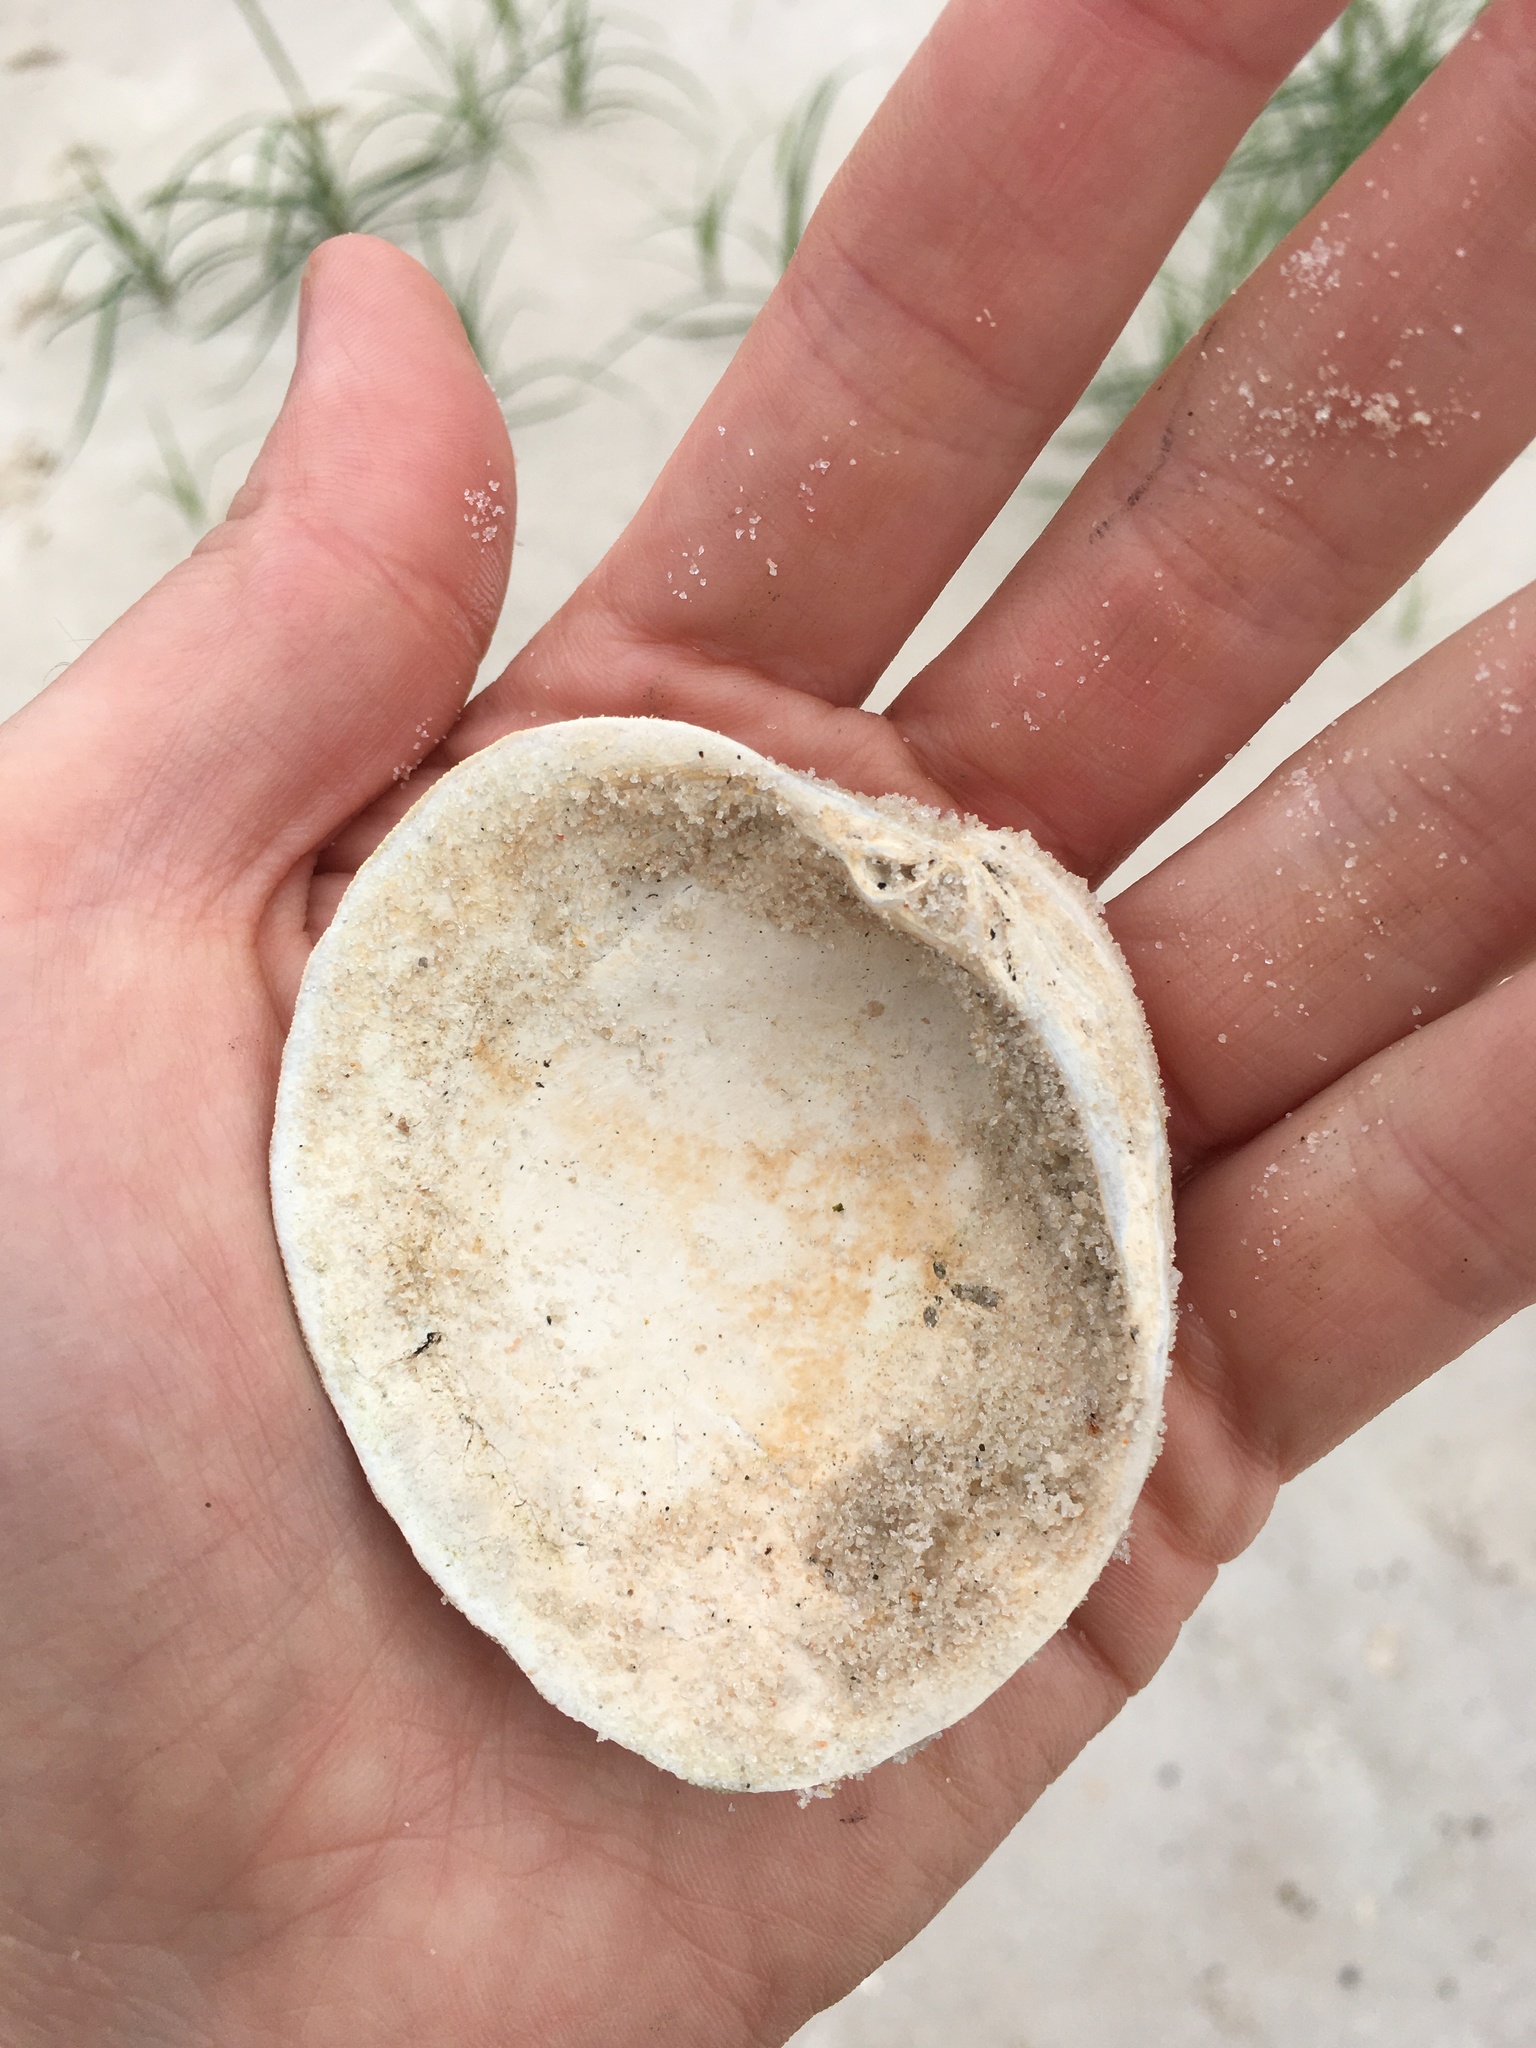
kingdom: Animalia
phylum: Mollusca
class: Bivalvia
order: Venerida
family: Veneridae
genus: Mercenaria
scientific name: Mercenaria campechiensis
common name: Südliche quahog-muschel
